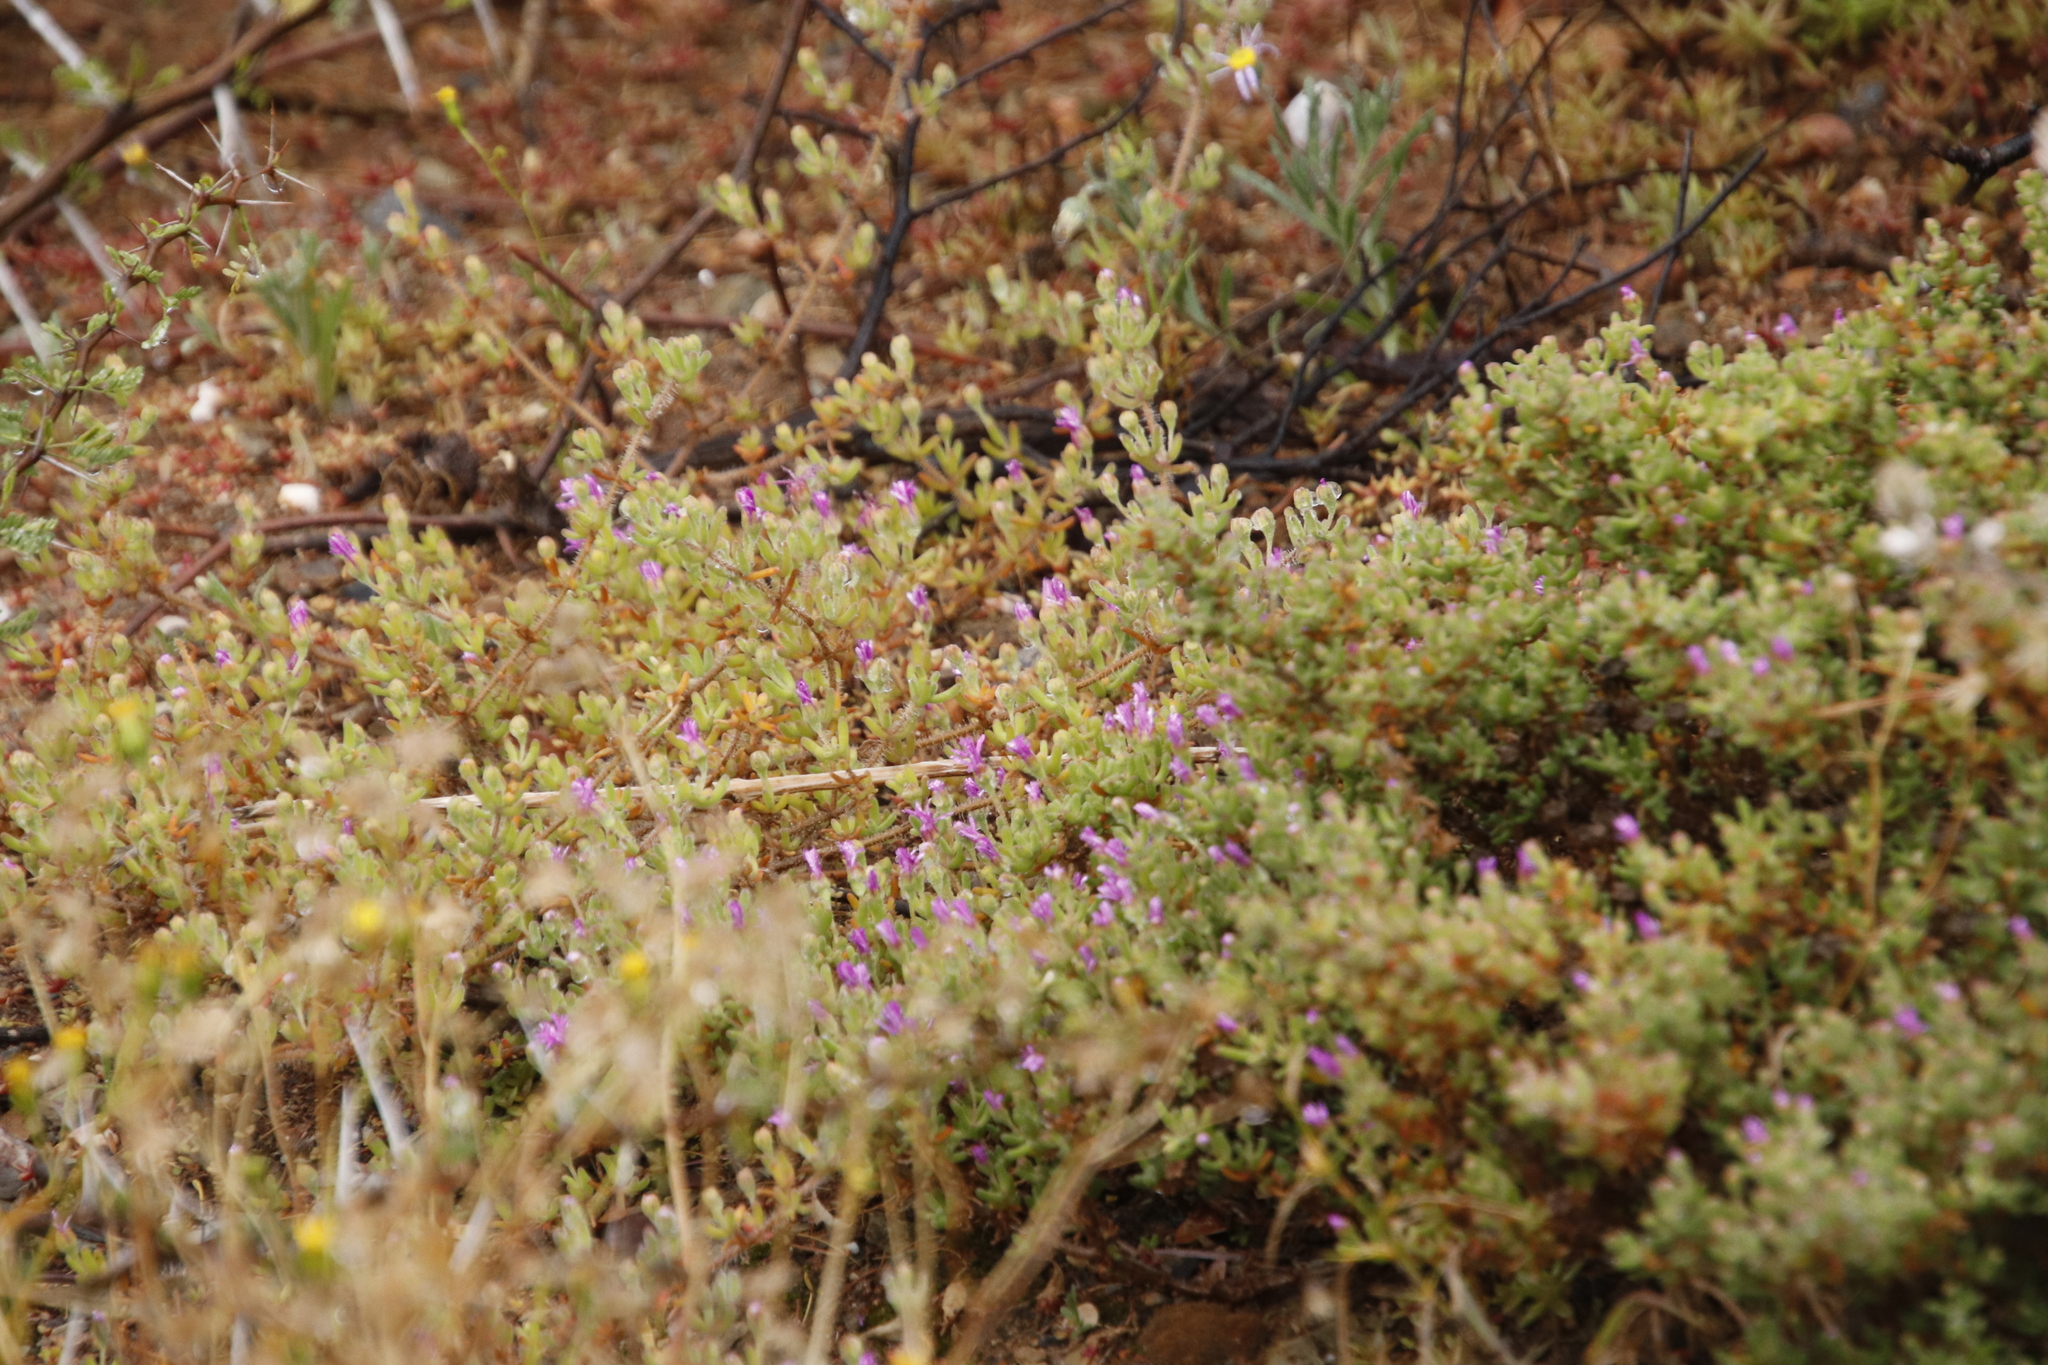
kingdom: Plantae
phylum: Tracheophyta
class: Magnoliopsida
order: Caryophyllales
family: Aizoaceae
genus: Drosanthemum
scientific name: Drosanthemum hispidum
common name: Hairy dewflower
